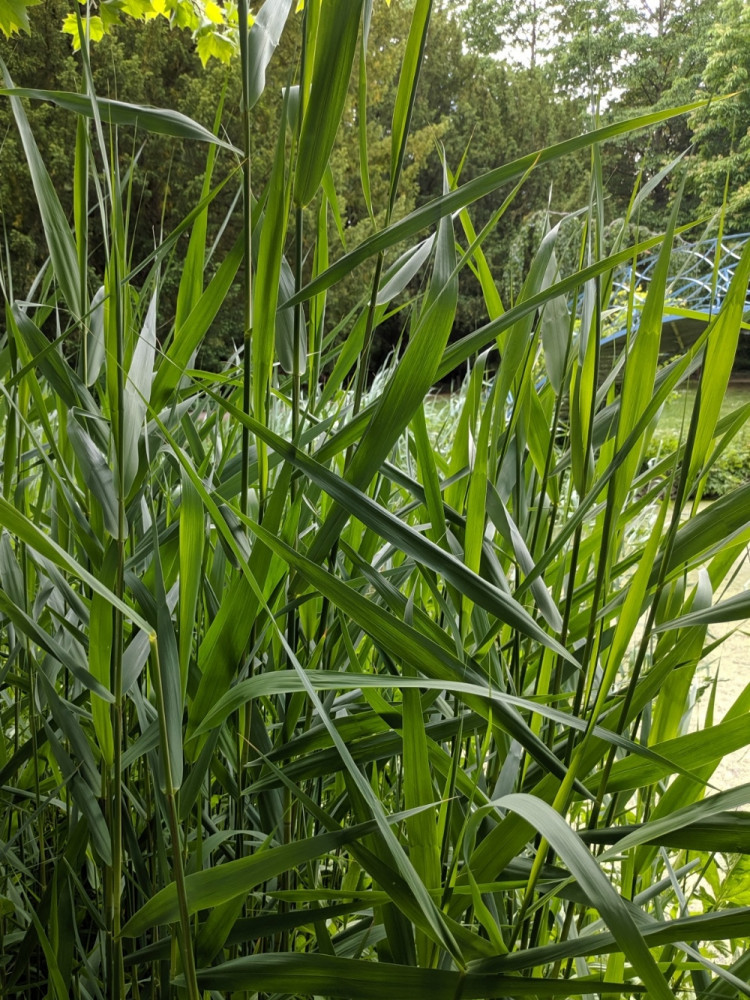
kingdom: Plantae
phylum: Tracheophyta
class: Liliopsida
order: Poales
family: Poaceae
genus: Phragmites
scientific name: Phragmites australis
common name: Common reed
